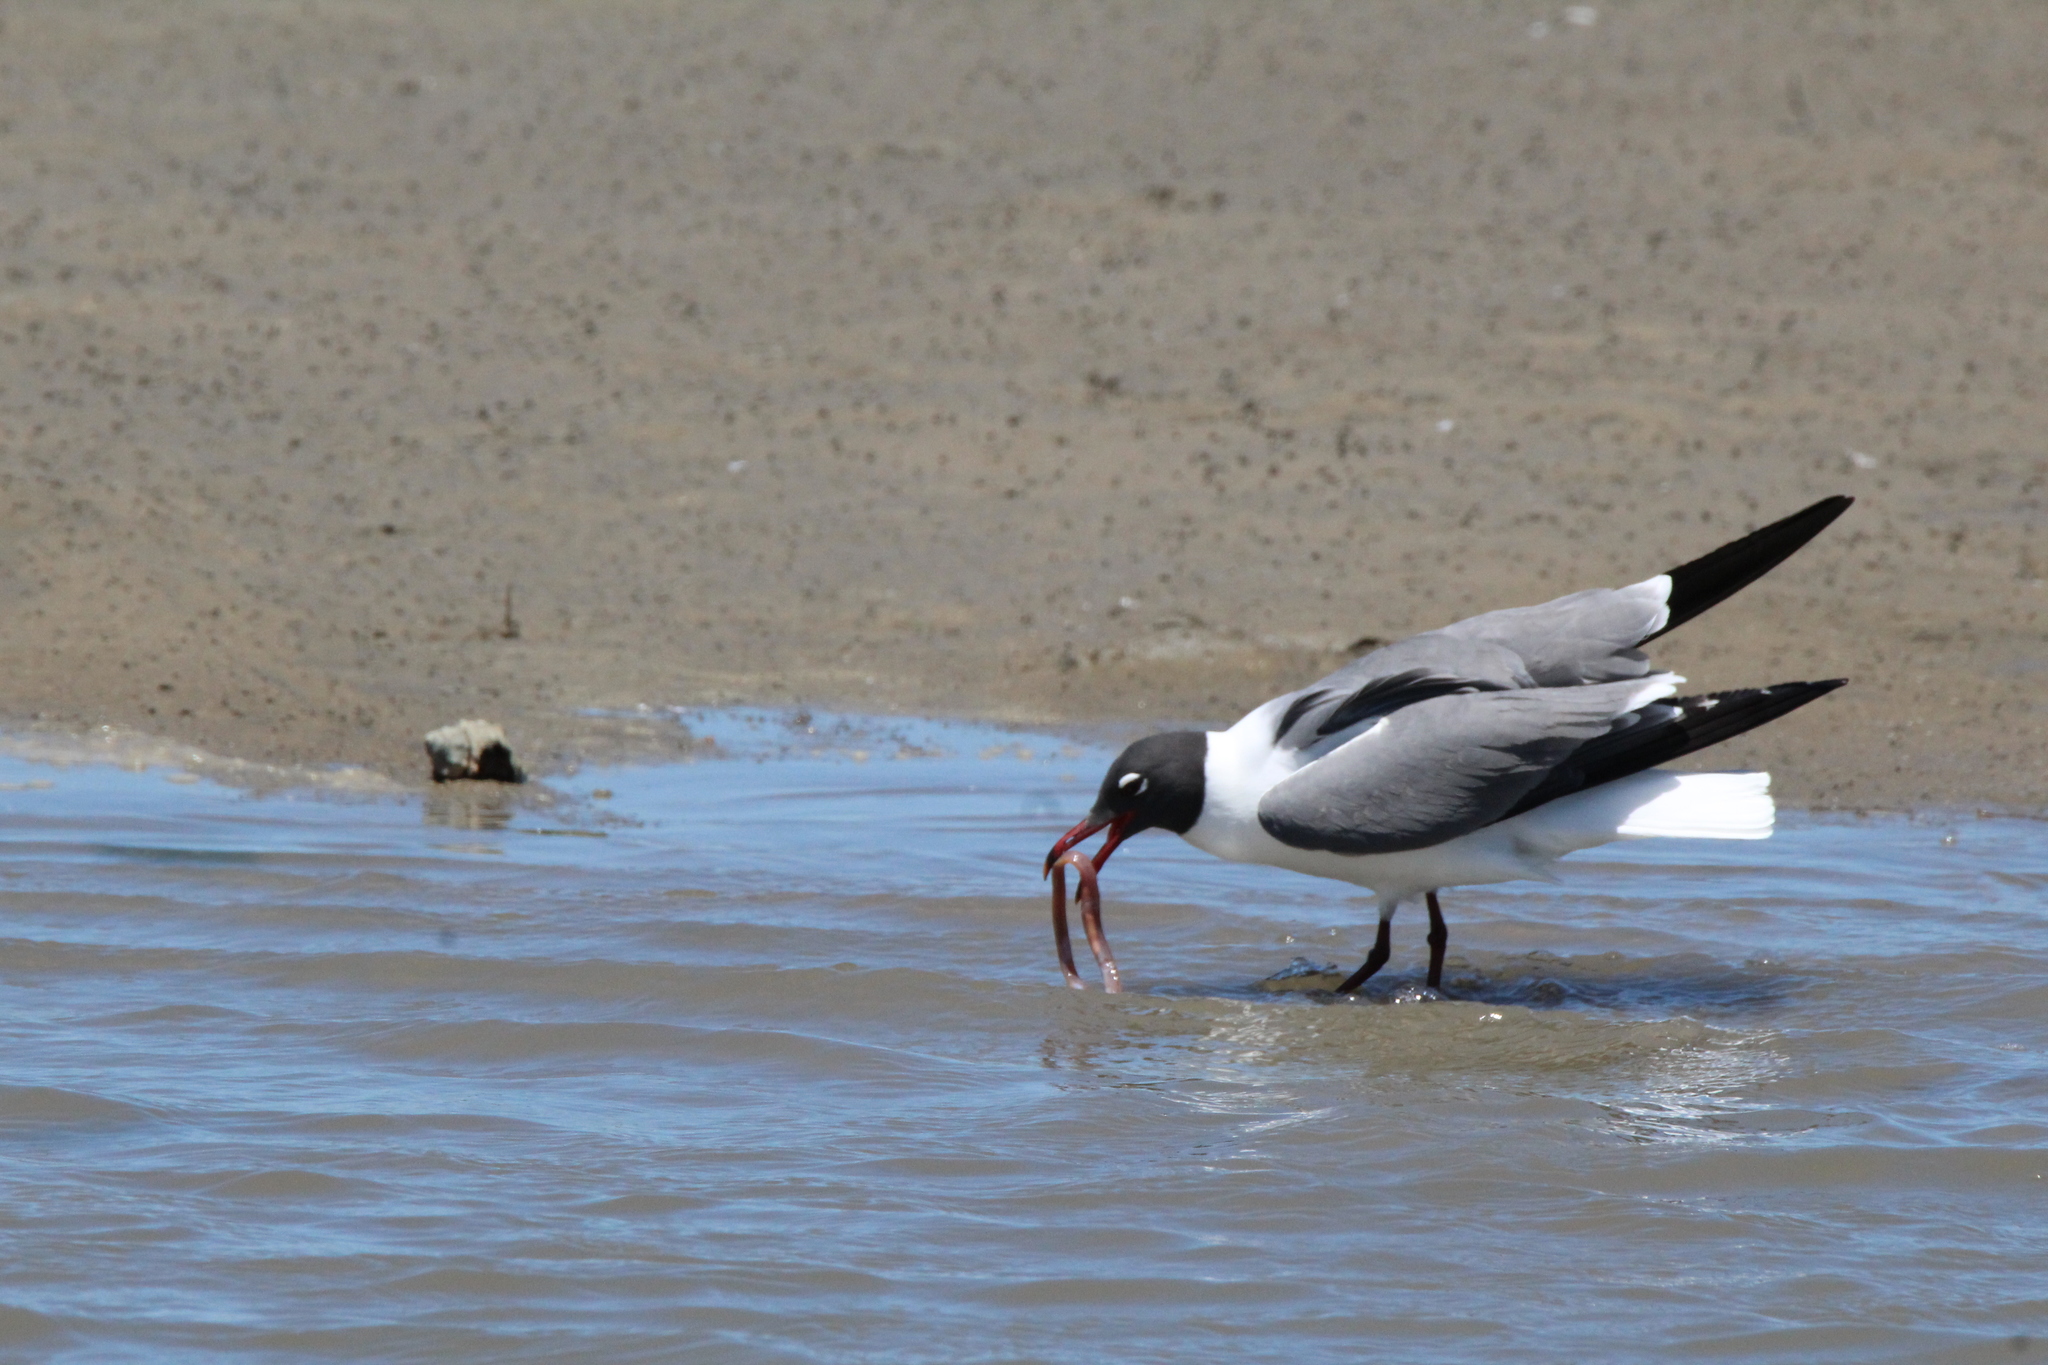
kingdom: Animalia
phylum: Chordata
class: Aves
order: Charadriiformes
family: Laridae
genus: Leucophaeus
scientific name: Leucophaeus atricilla
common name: Laughing gull
